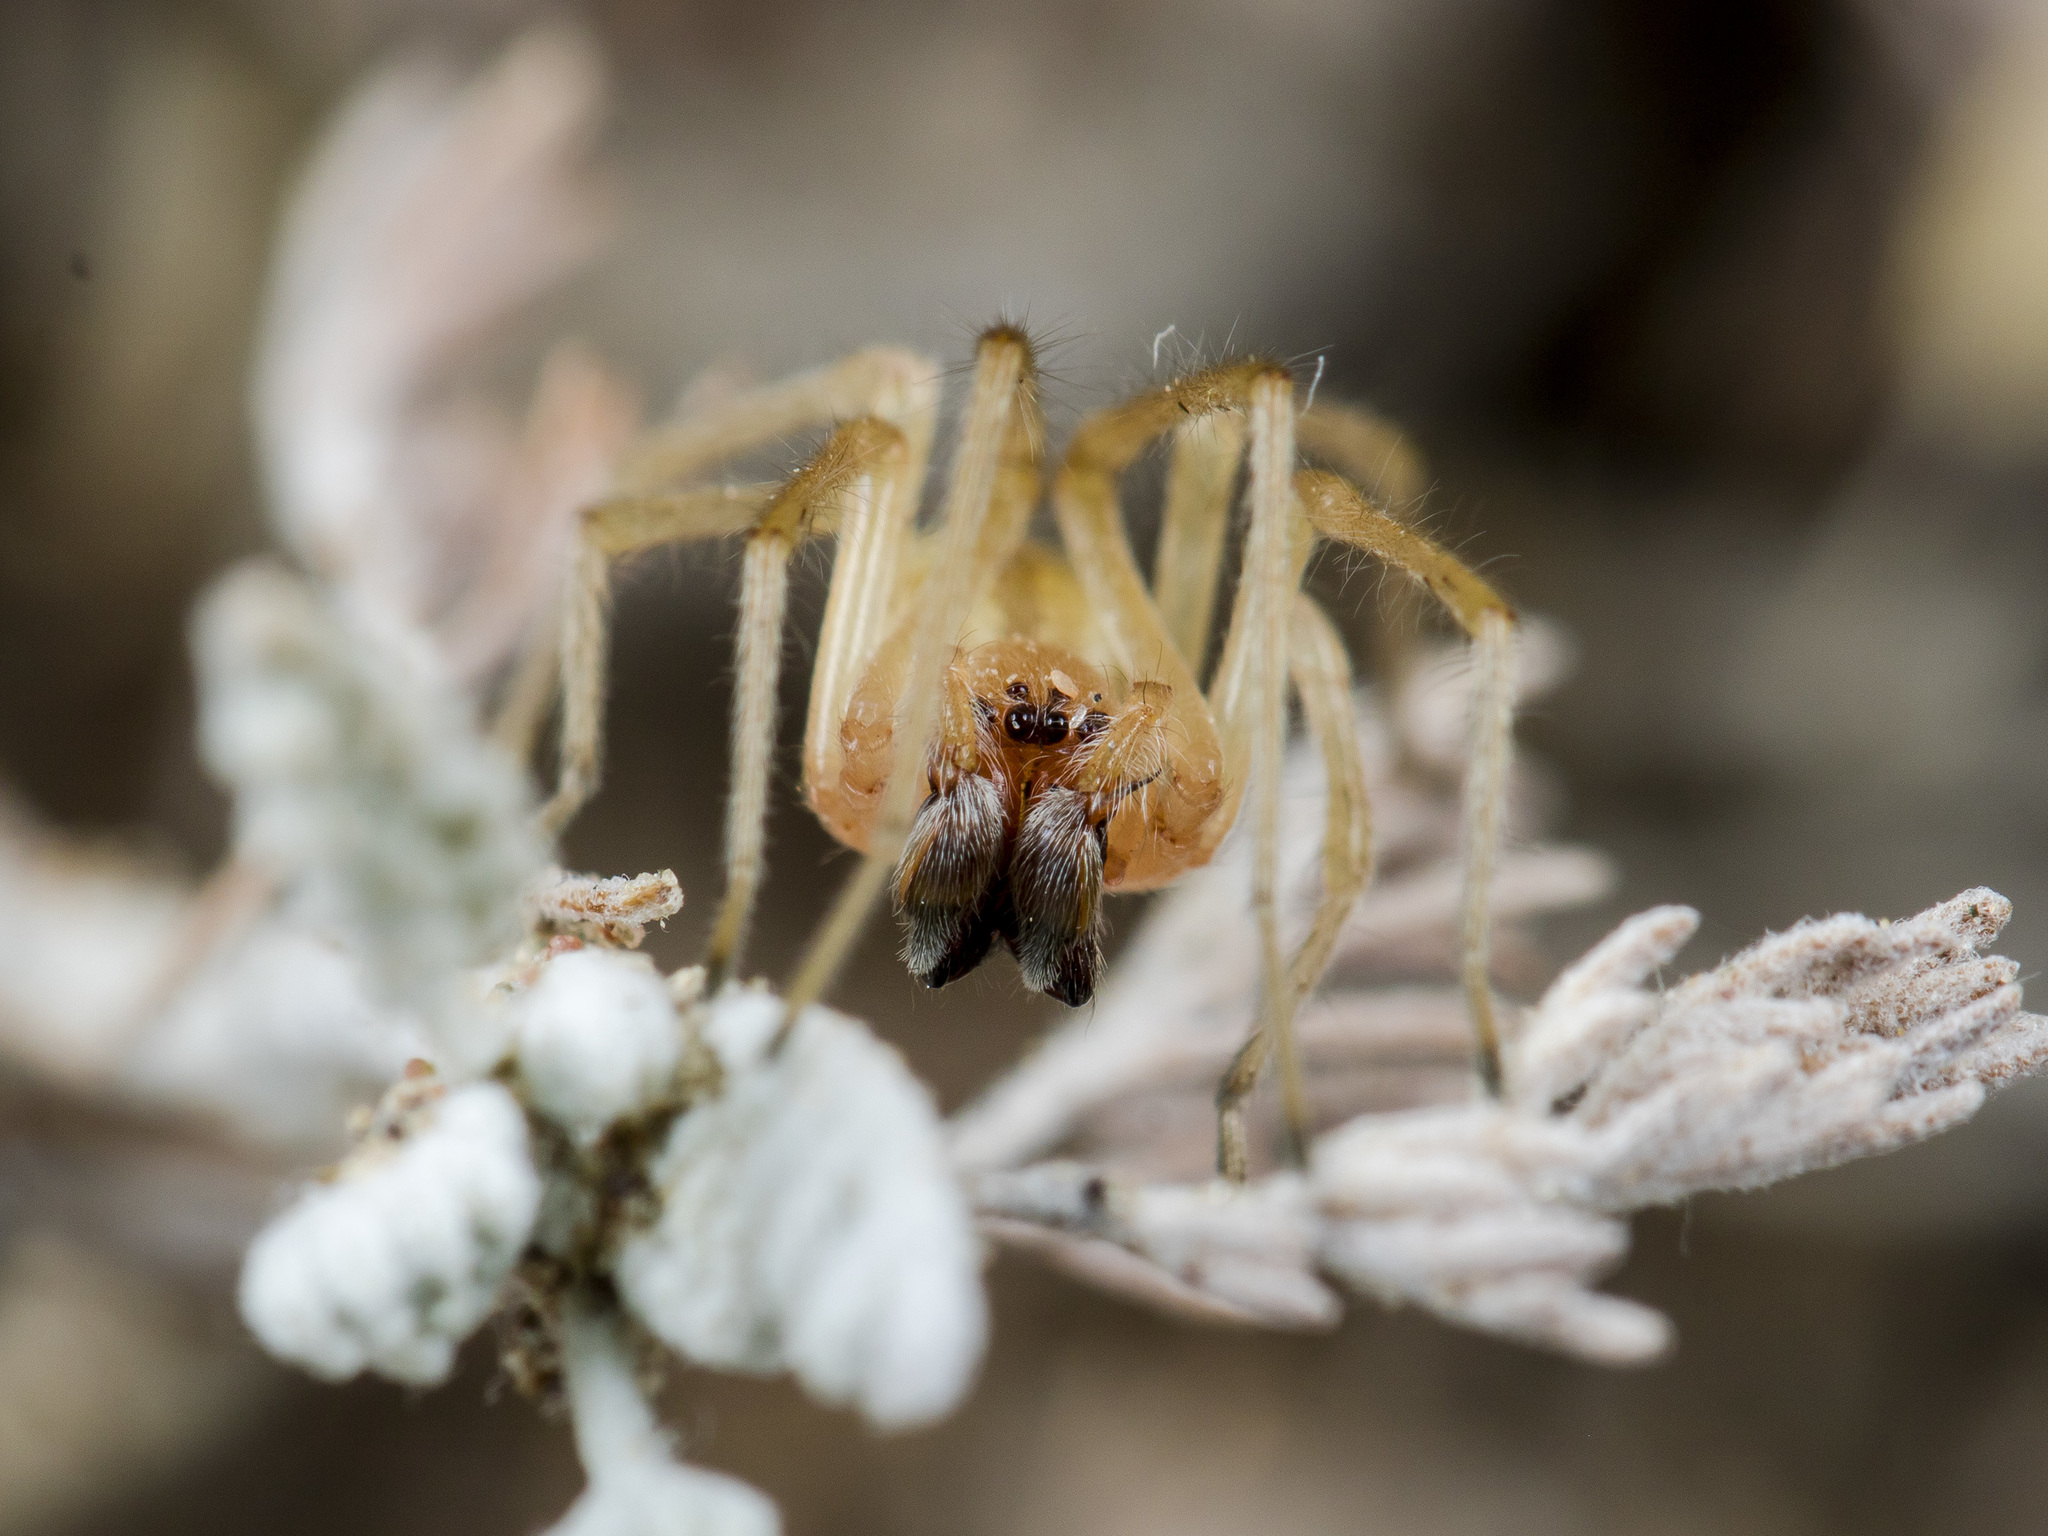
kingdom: Animalia
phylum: Arthropoda
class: Arachnida
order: Araneae
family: Cheiracanthiidae
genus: Cheiracanthium
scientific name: Cheiracanthium virescens
